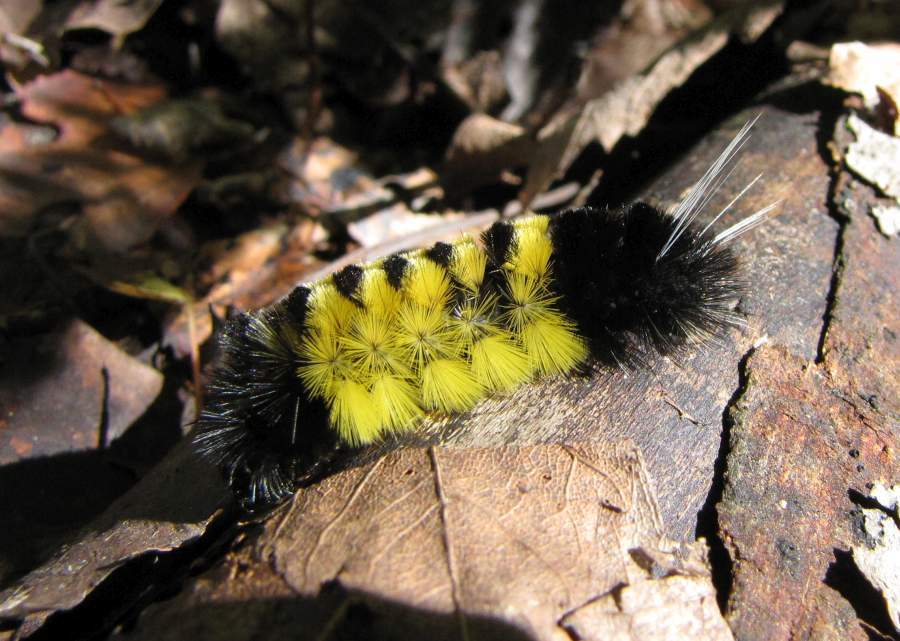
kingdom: Animalia
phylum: Arthropoda
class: Insecta
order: Lepidoptera
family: Erebidae
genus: Lophocampa
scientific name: Lophocampa maculata
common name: Spotted tussock moth
